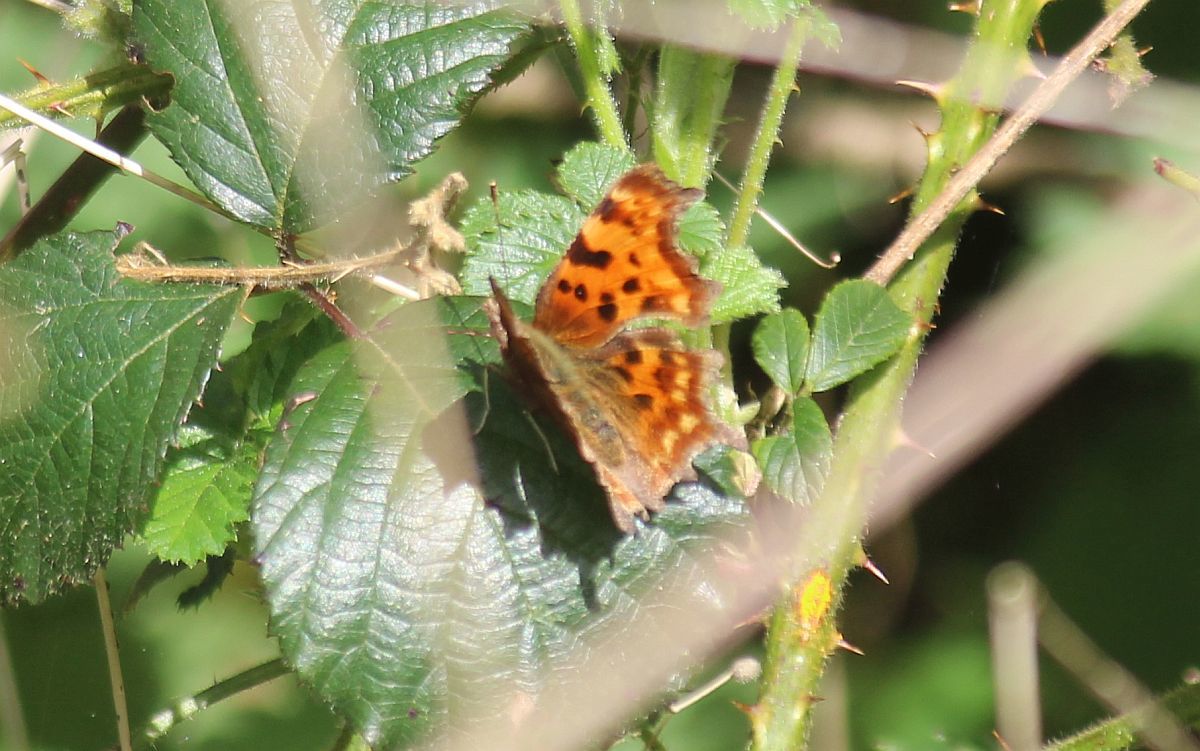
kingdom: Animalia
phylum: Arthropoda
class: Insecta
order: Lepidoptera
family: Nymphalidae
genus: Polygonia
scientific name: Polygonia c-album
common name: Comma
